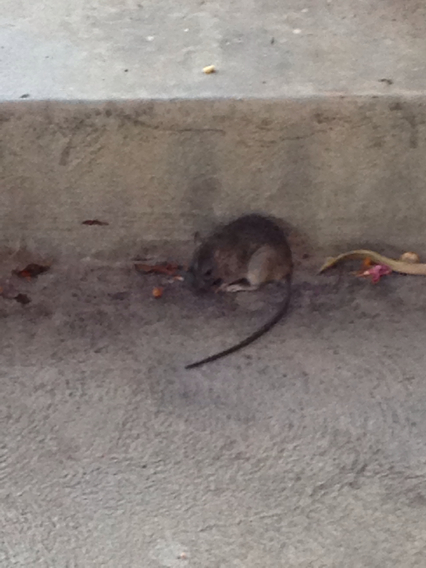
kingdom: Animalia
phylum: Chordata
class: Mammalia
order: Rodentia
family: Muridae
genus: Rattus
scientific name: Rattus norvegicus
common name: Brown rat
